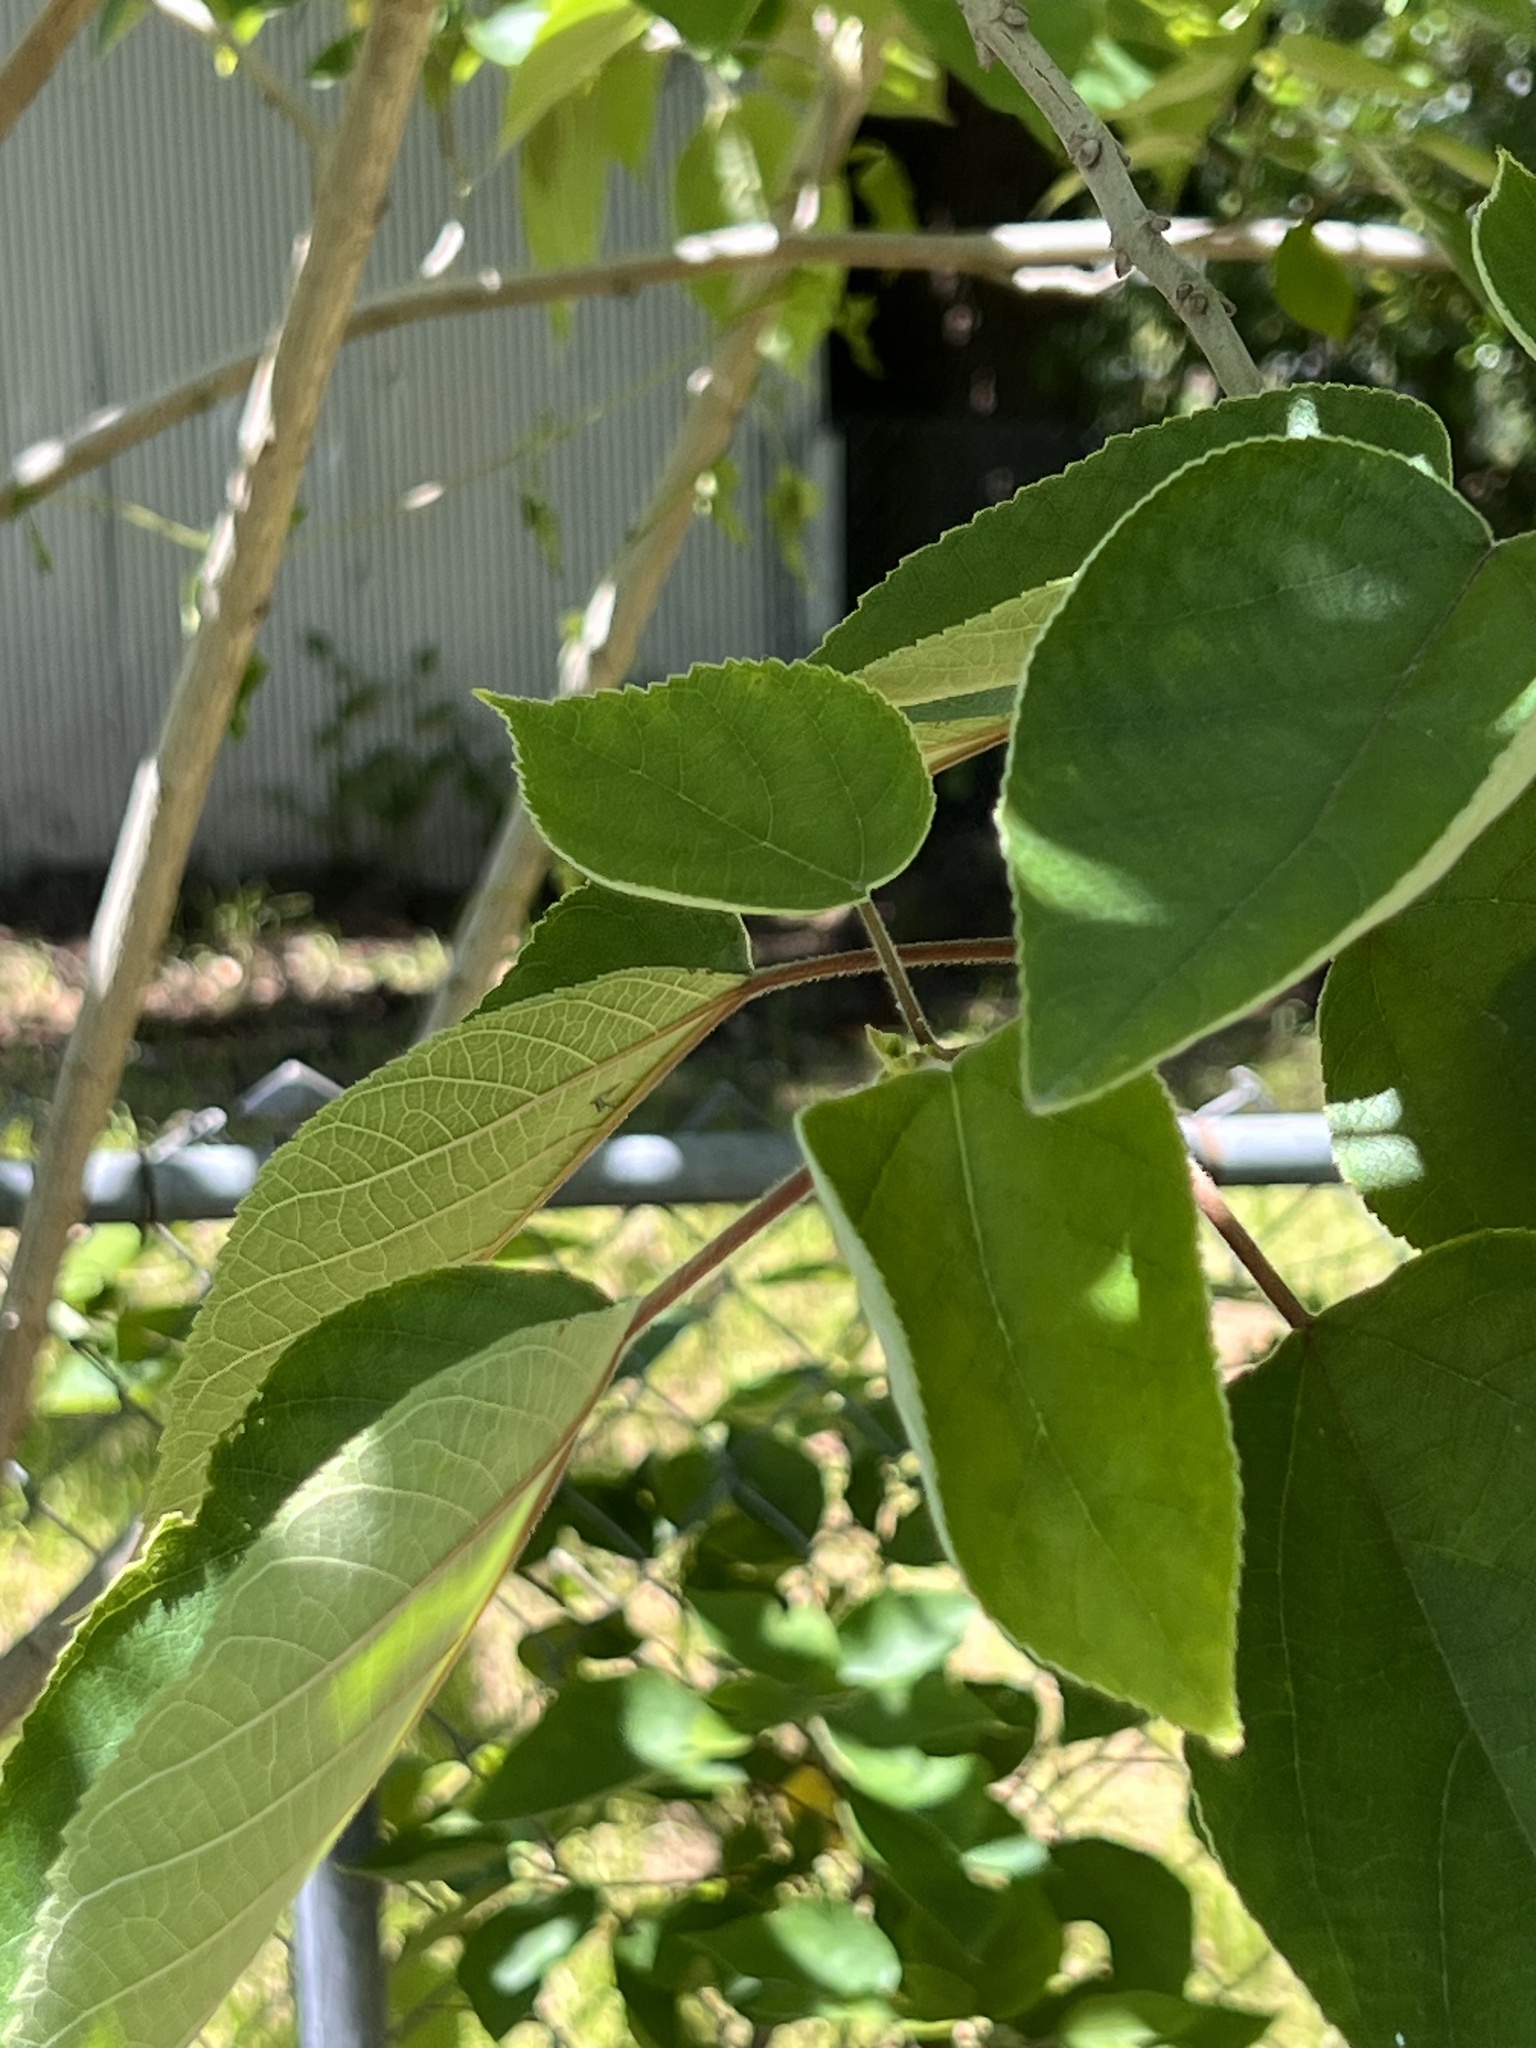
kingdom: Plantae
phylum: Tracheophyta
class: Magnoliopsida
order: Rosales
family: Moraceae
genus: Broussonetia
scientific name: Broussonetia papyrifera
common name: Paper mulberry
